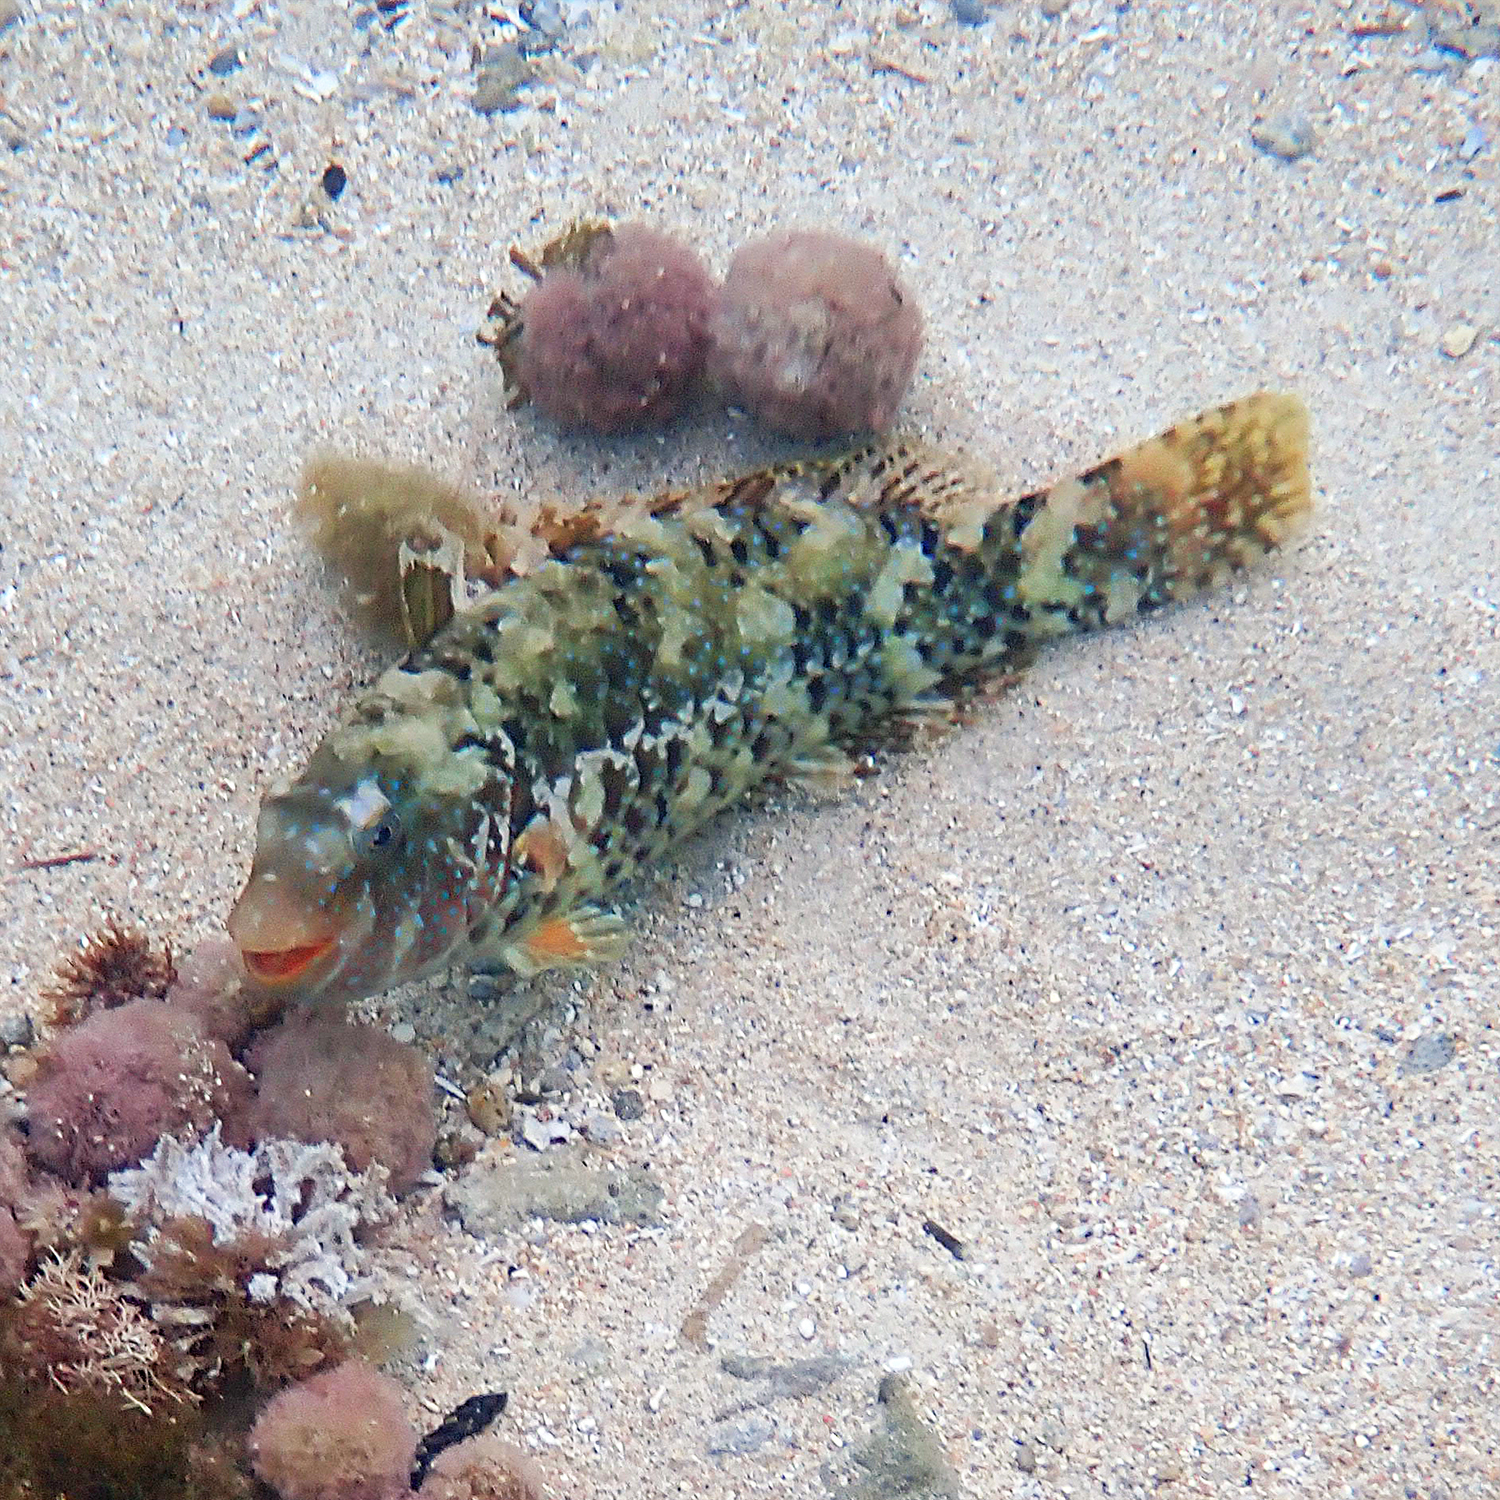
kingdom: Animalia
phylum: Chordata
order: Perciformes
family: Scaridae
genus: Leptoscarus
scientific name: Leptoscarus vaigiensis
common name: Marbled parrotfish
